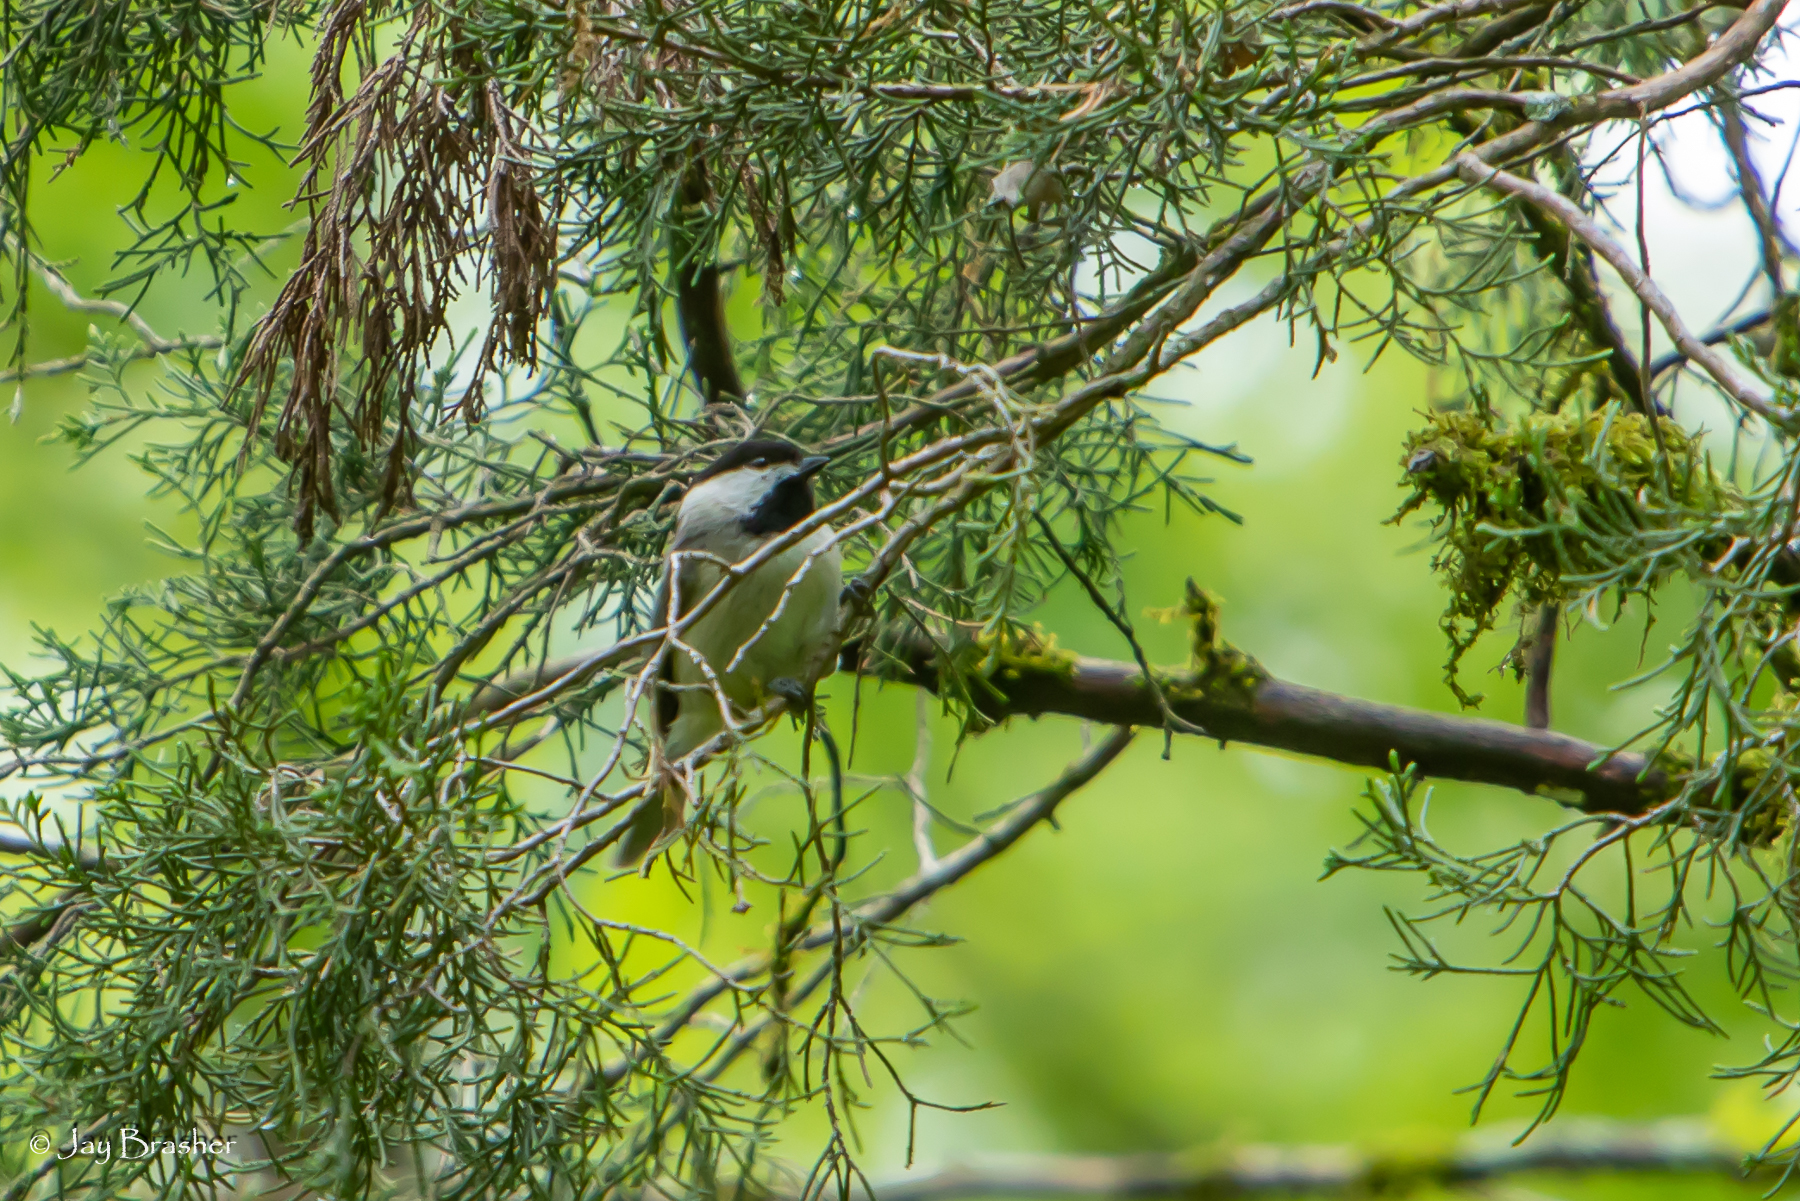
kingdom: Animalia
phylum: Chordata
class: Aves
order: Passeriformes
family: Paridae
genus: Poecile
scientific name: Poecile carolinensis
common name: Carolina chickadee
